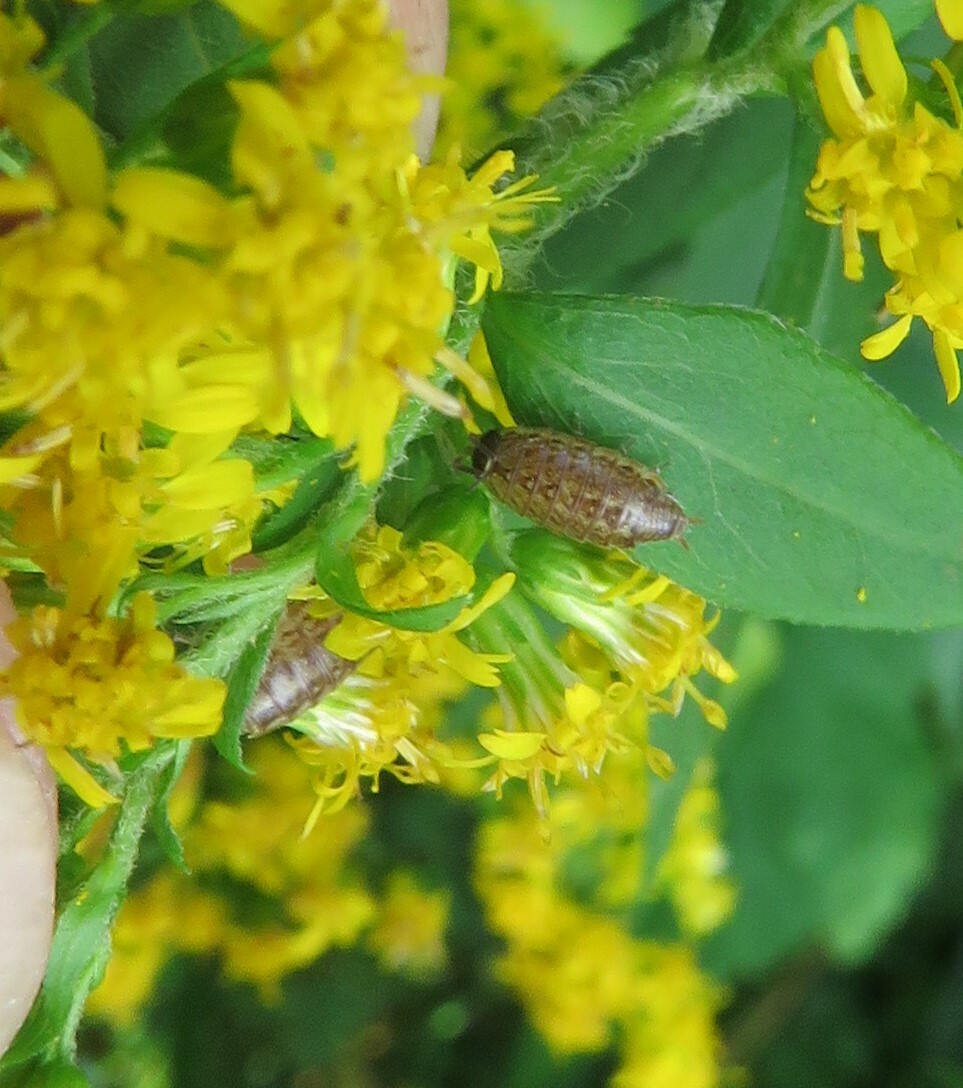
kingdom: Animalia
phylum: Arthropoda
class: Malacostraca
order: Isopoda
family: Philosciidae
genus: Philoscia
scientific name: Philoscia muscorum
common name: Common striped woodlouse
